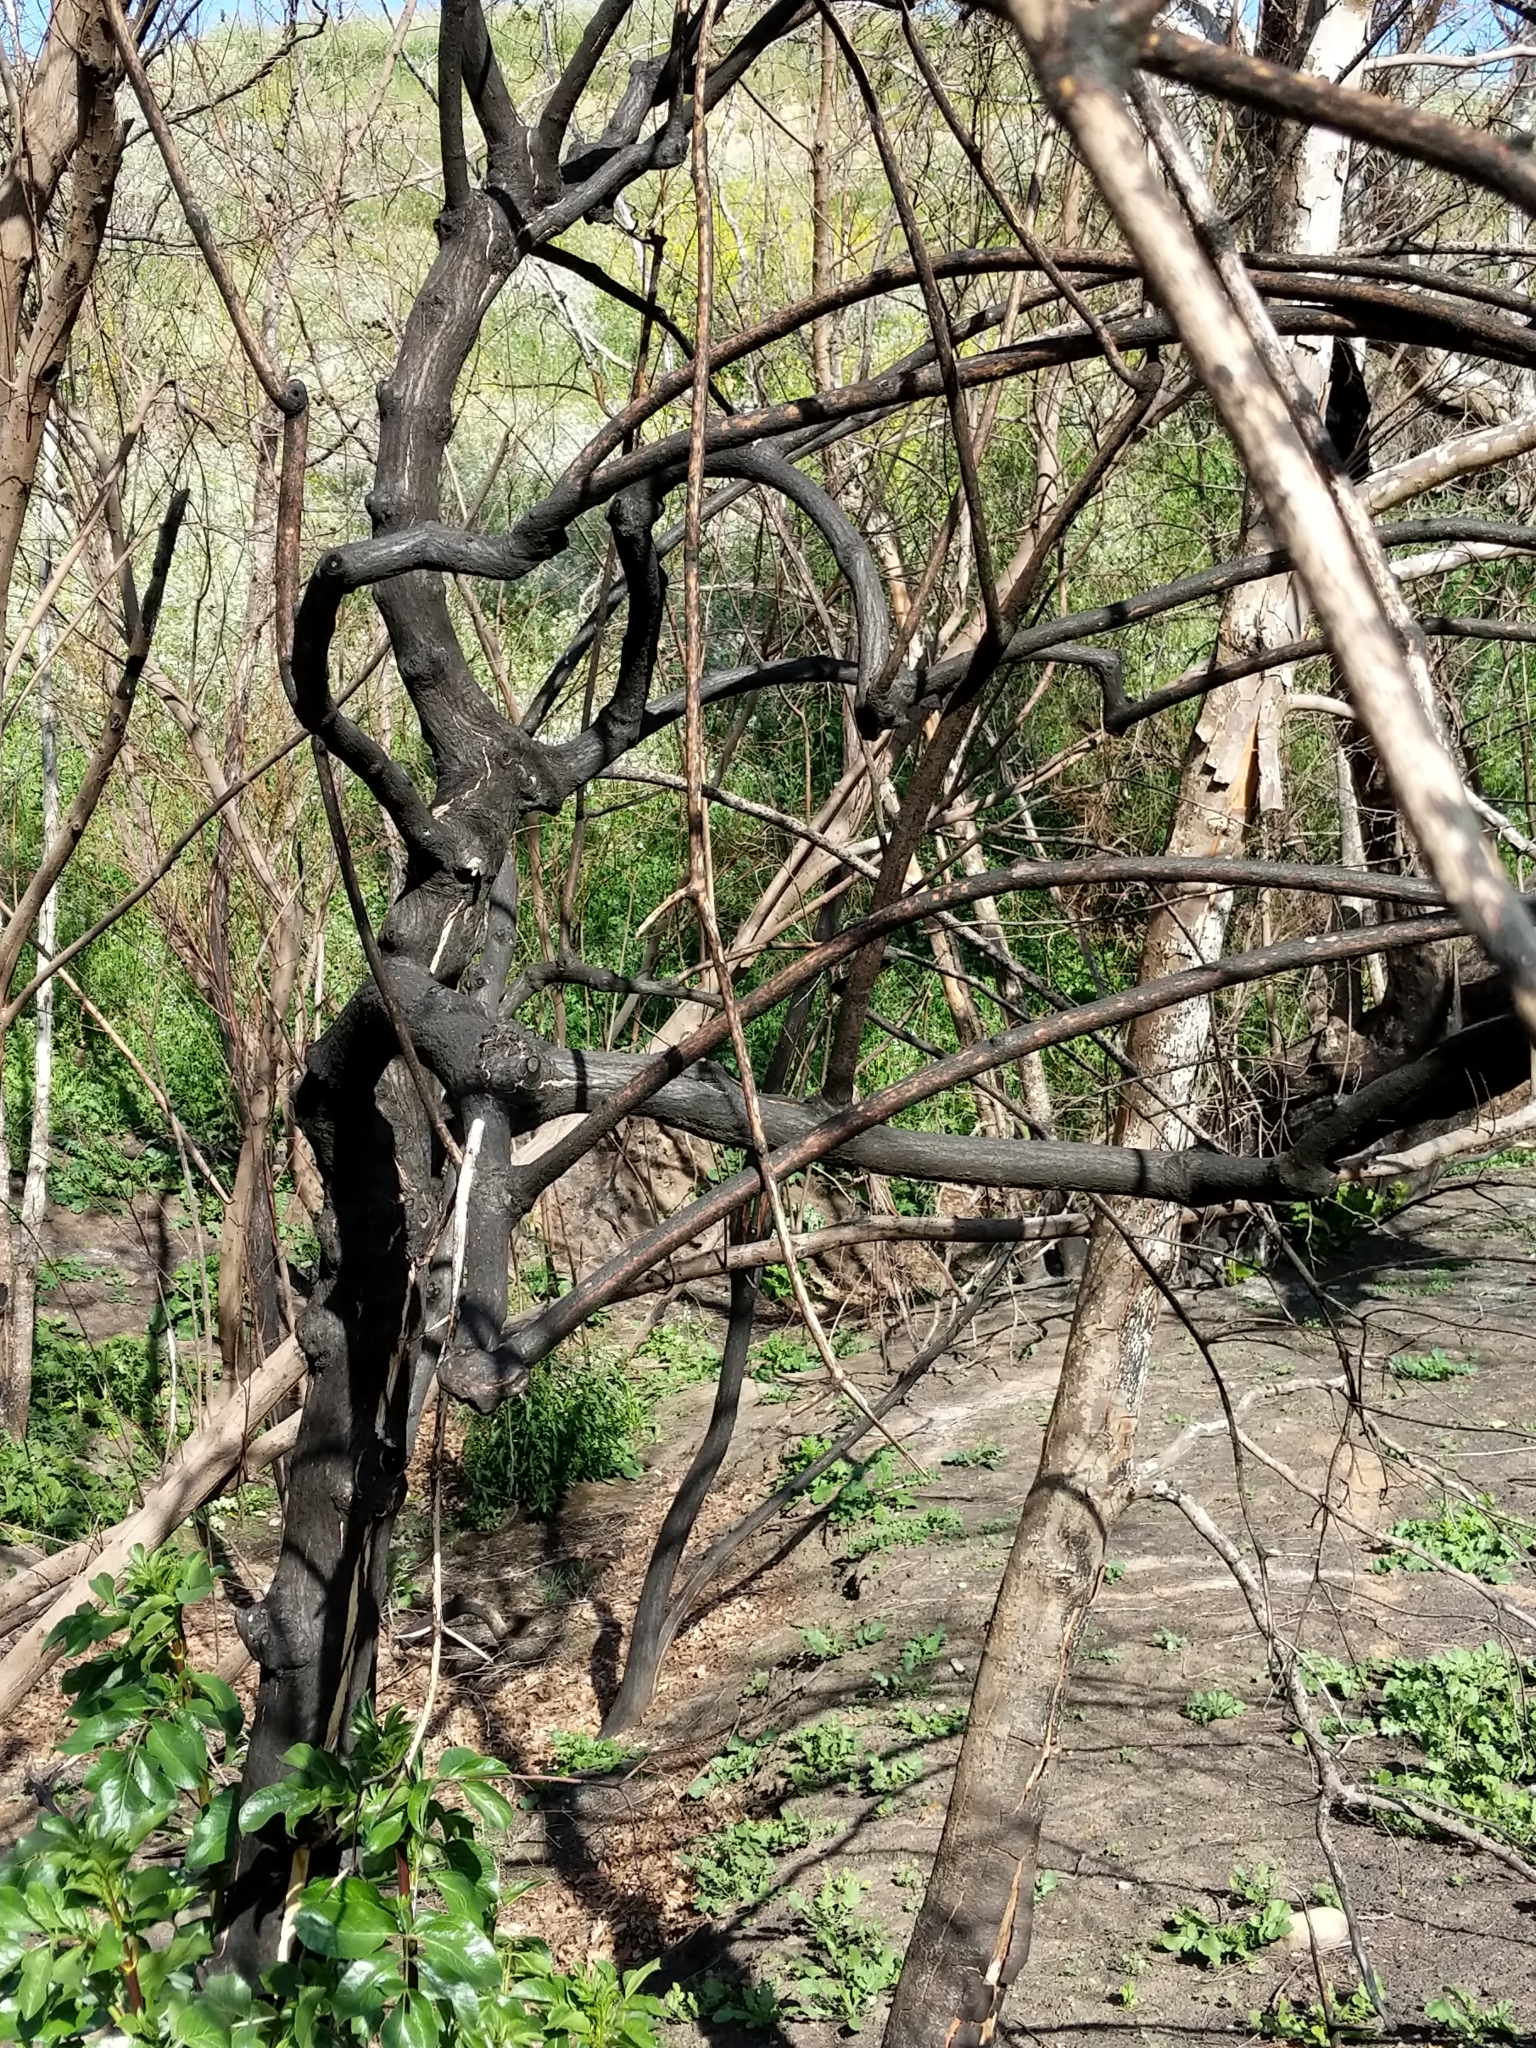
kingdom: Plantae
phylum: Tracheophyta
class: Magnoliopsida
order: Dipsacales
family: Viburnaceae
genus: Sambucus
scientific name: Sambucus cerulea
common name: Blue elder
